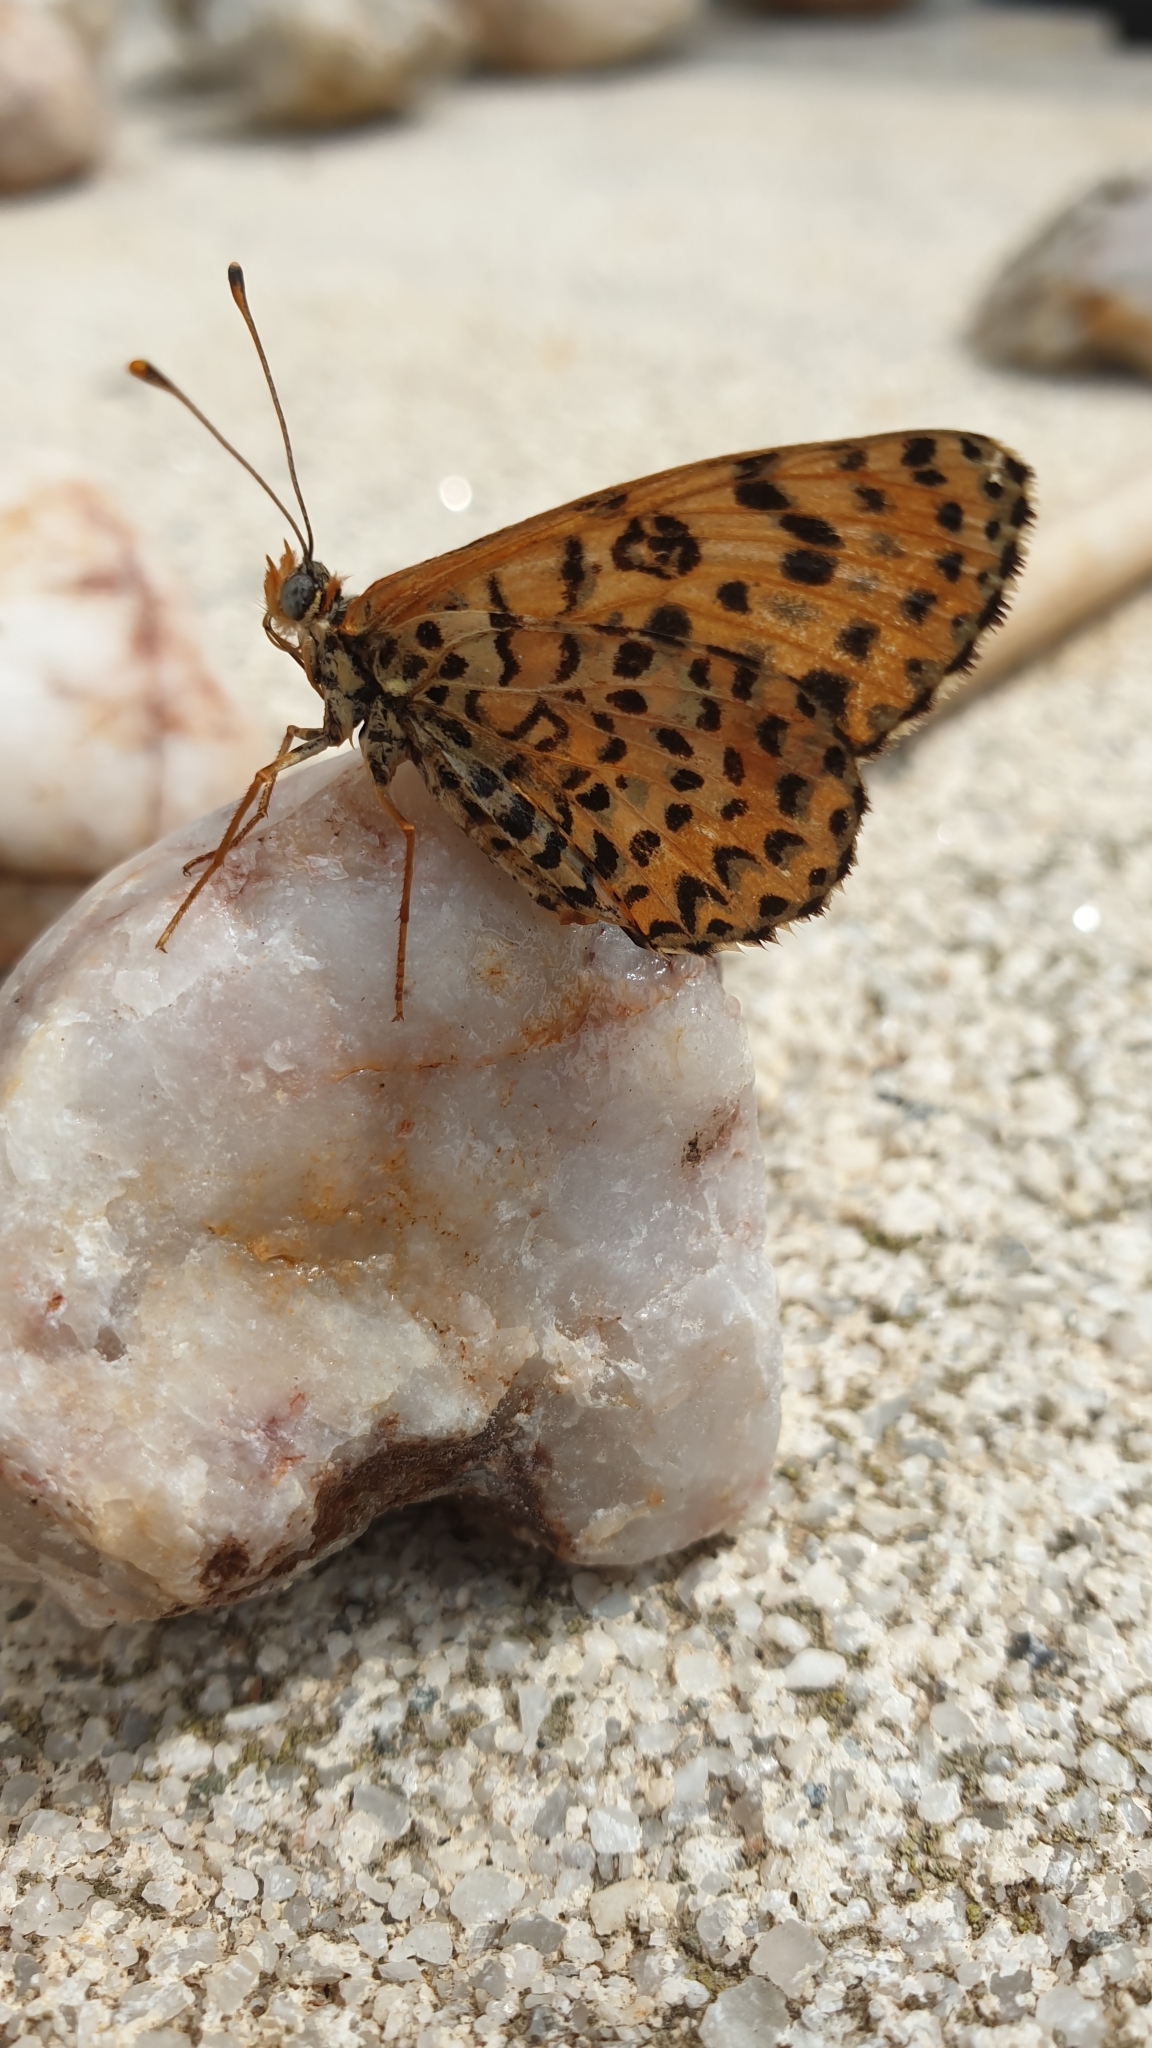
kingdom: Animalia
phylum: Arthropoda
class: Insecta
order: Lepidoptera
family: Nymphalidae
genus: Melitaea
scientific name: Melitaea didyma
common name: Spotted fritillary
